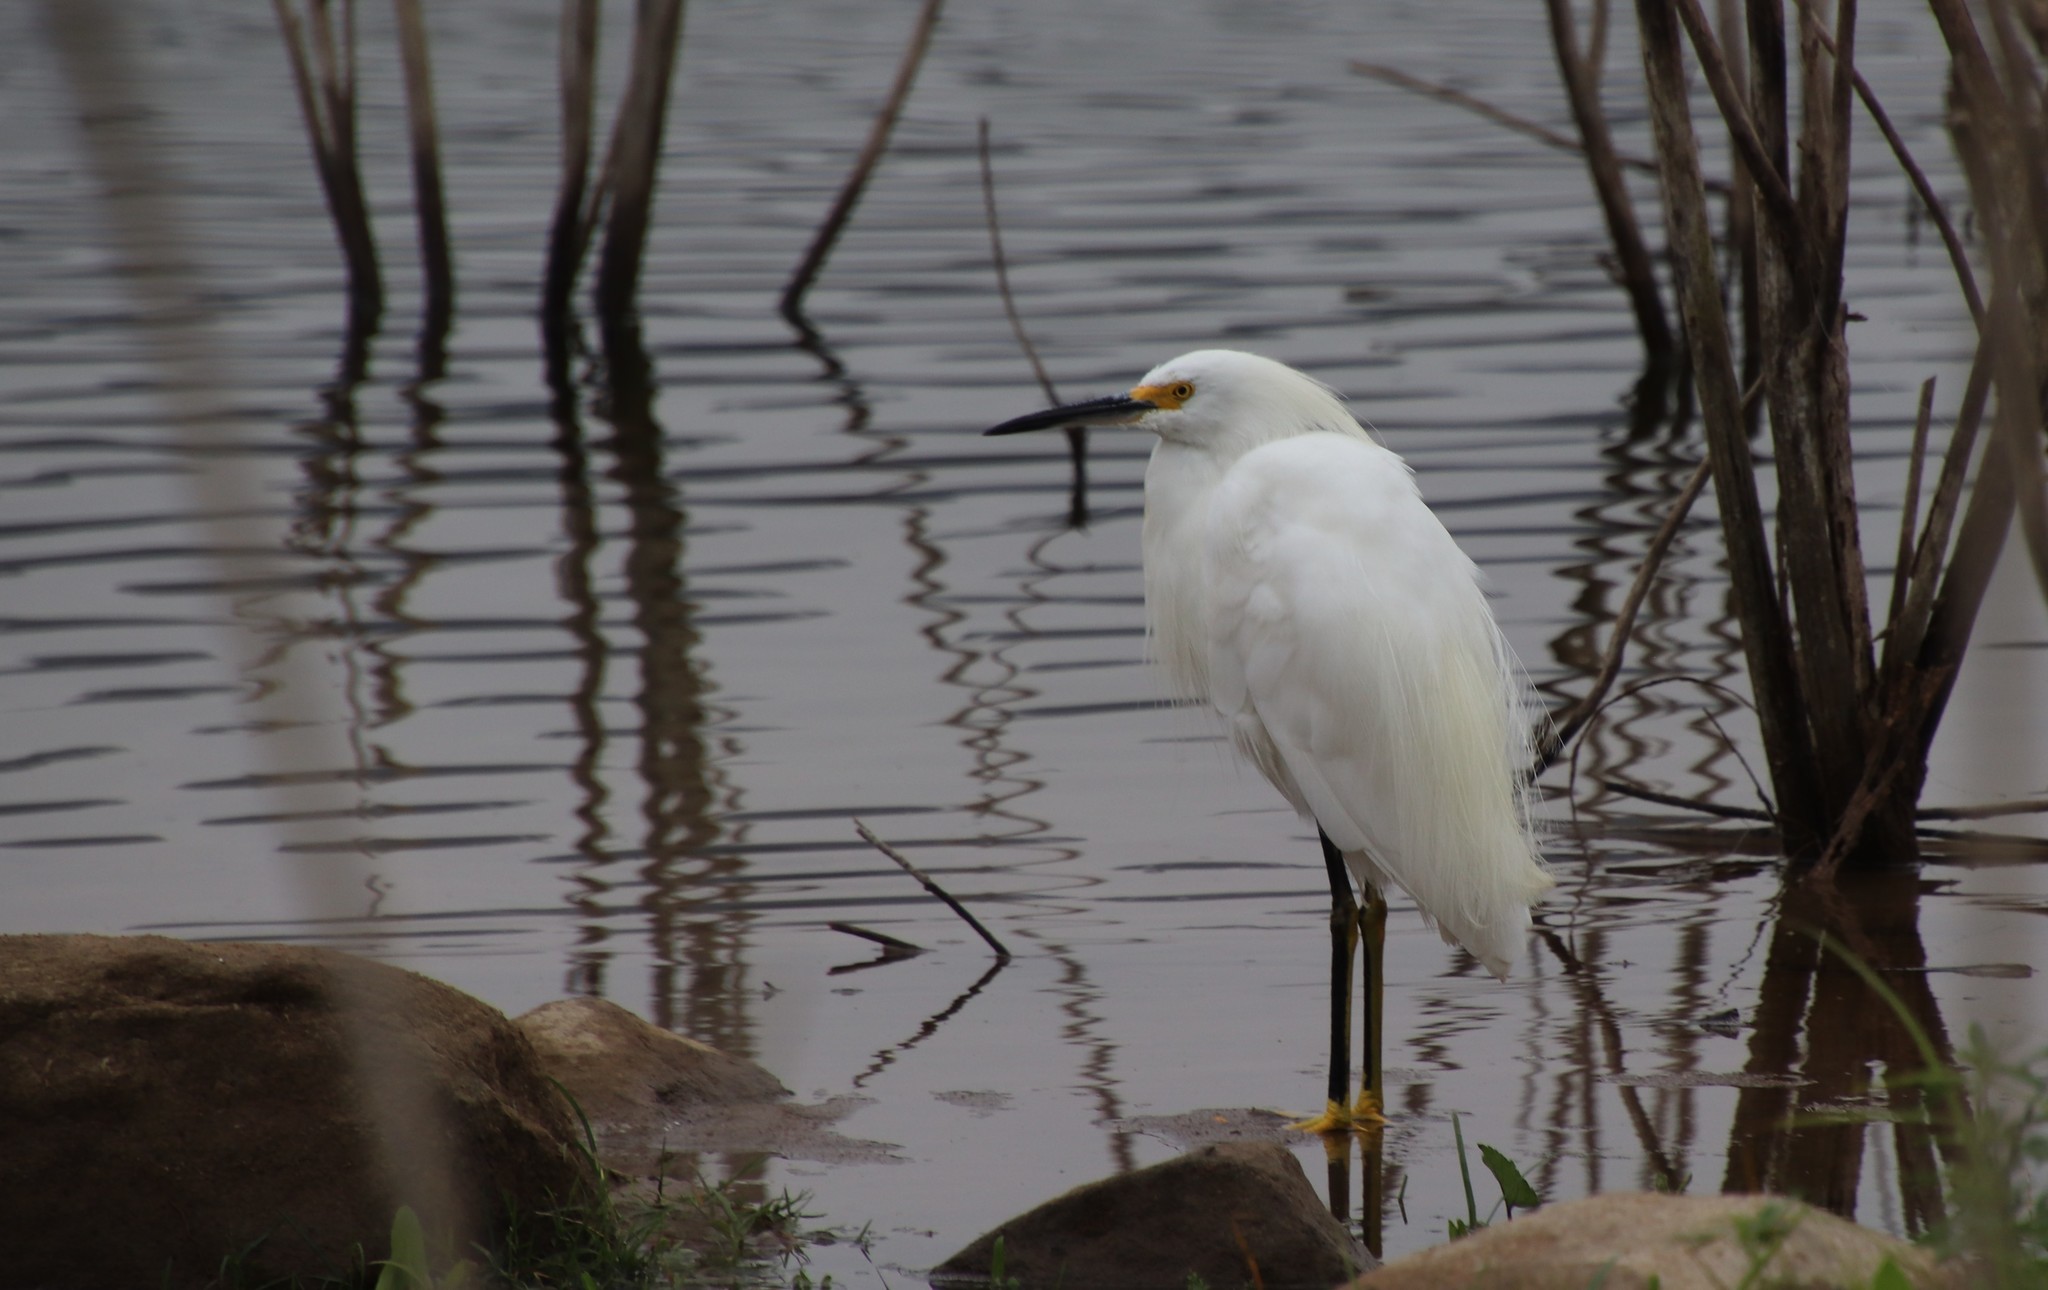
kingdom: Animalia
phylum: Chordata
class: Aves
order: Pelecaniformes
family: Ardeidae
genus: Egretta
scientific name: Egretta thula
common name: Snowy egret
